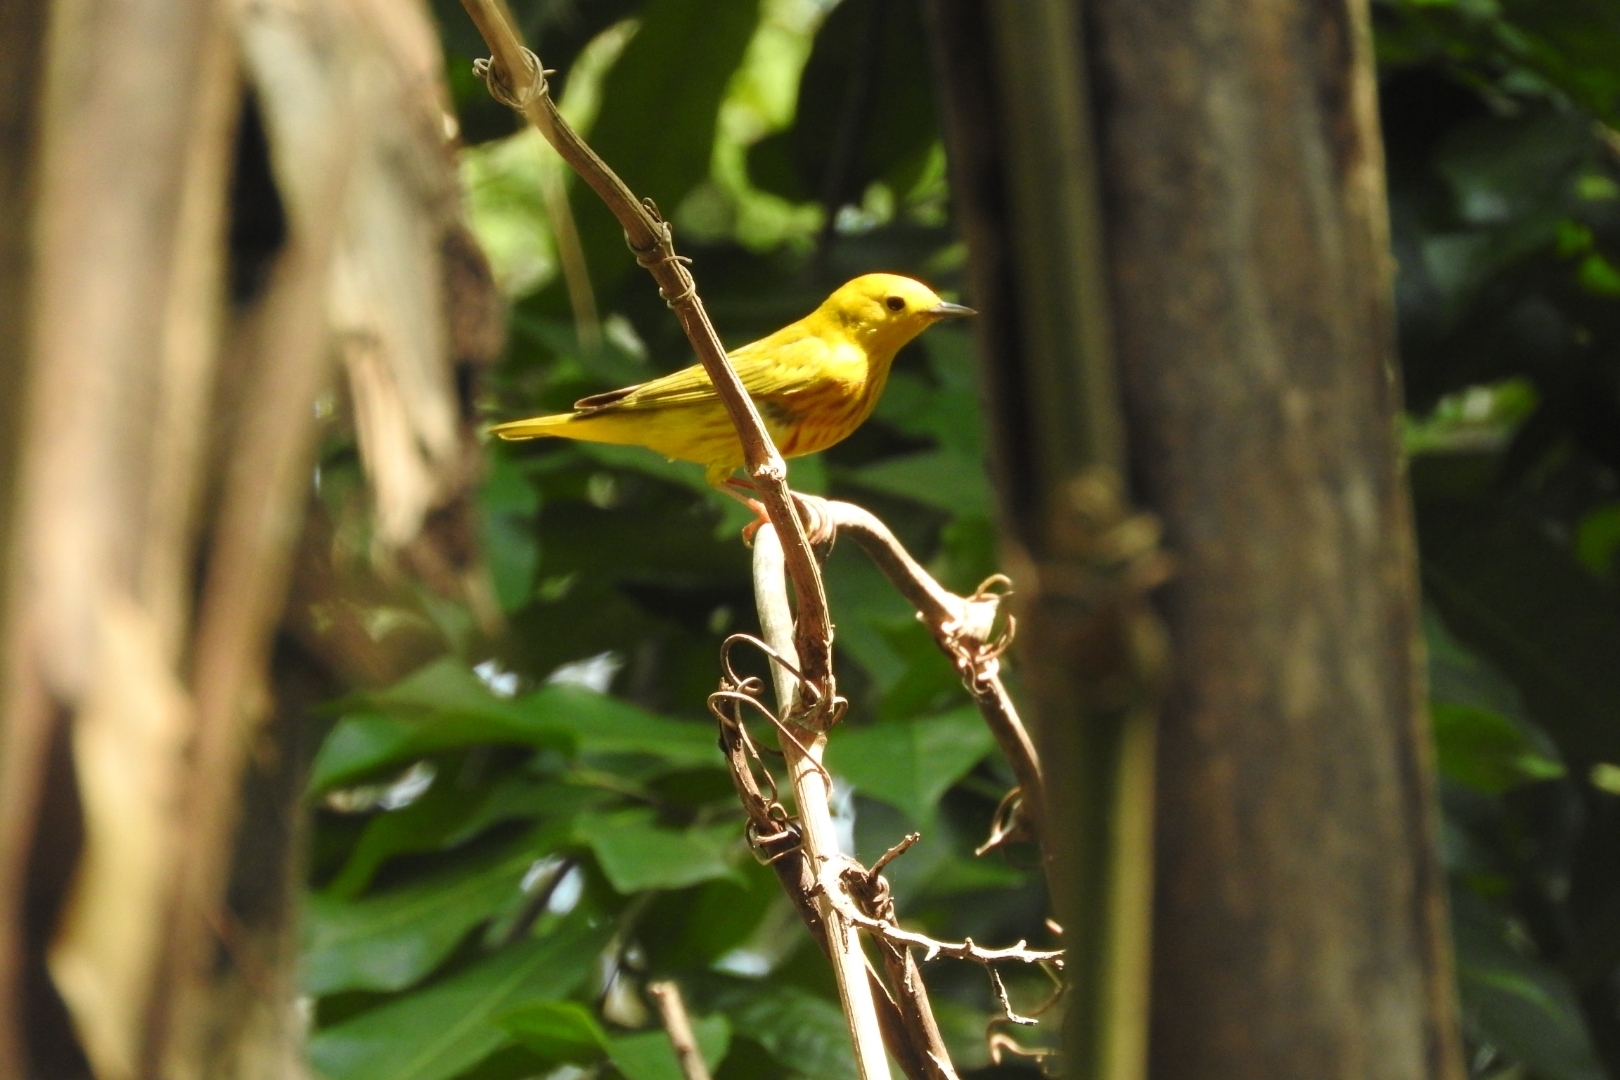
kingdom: Animalia
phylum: Chordata
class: Aves
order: Passeriformes
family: Parulidae
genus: Setophaga
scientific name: Setophaga petechia
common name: Yellow warbler
